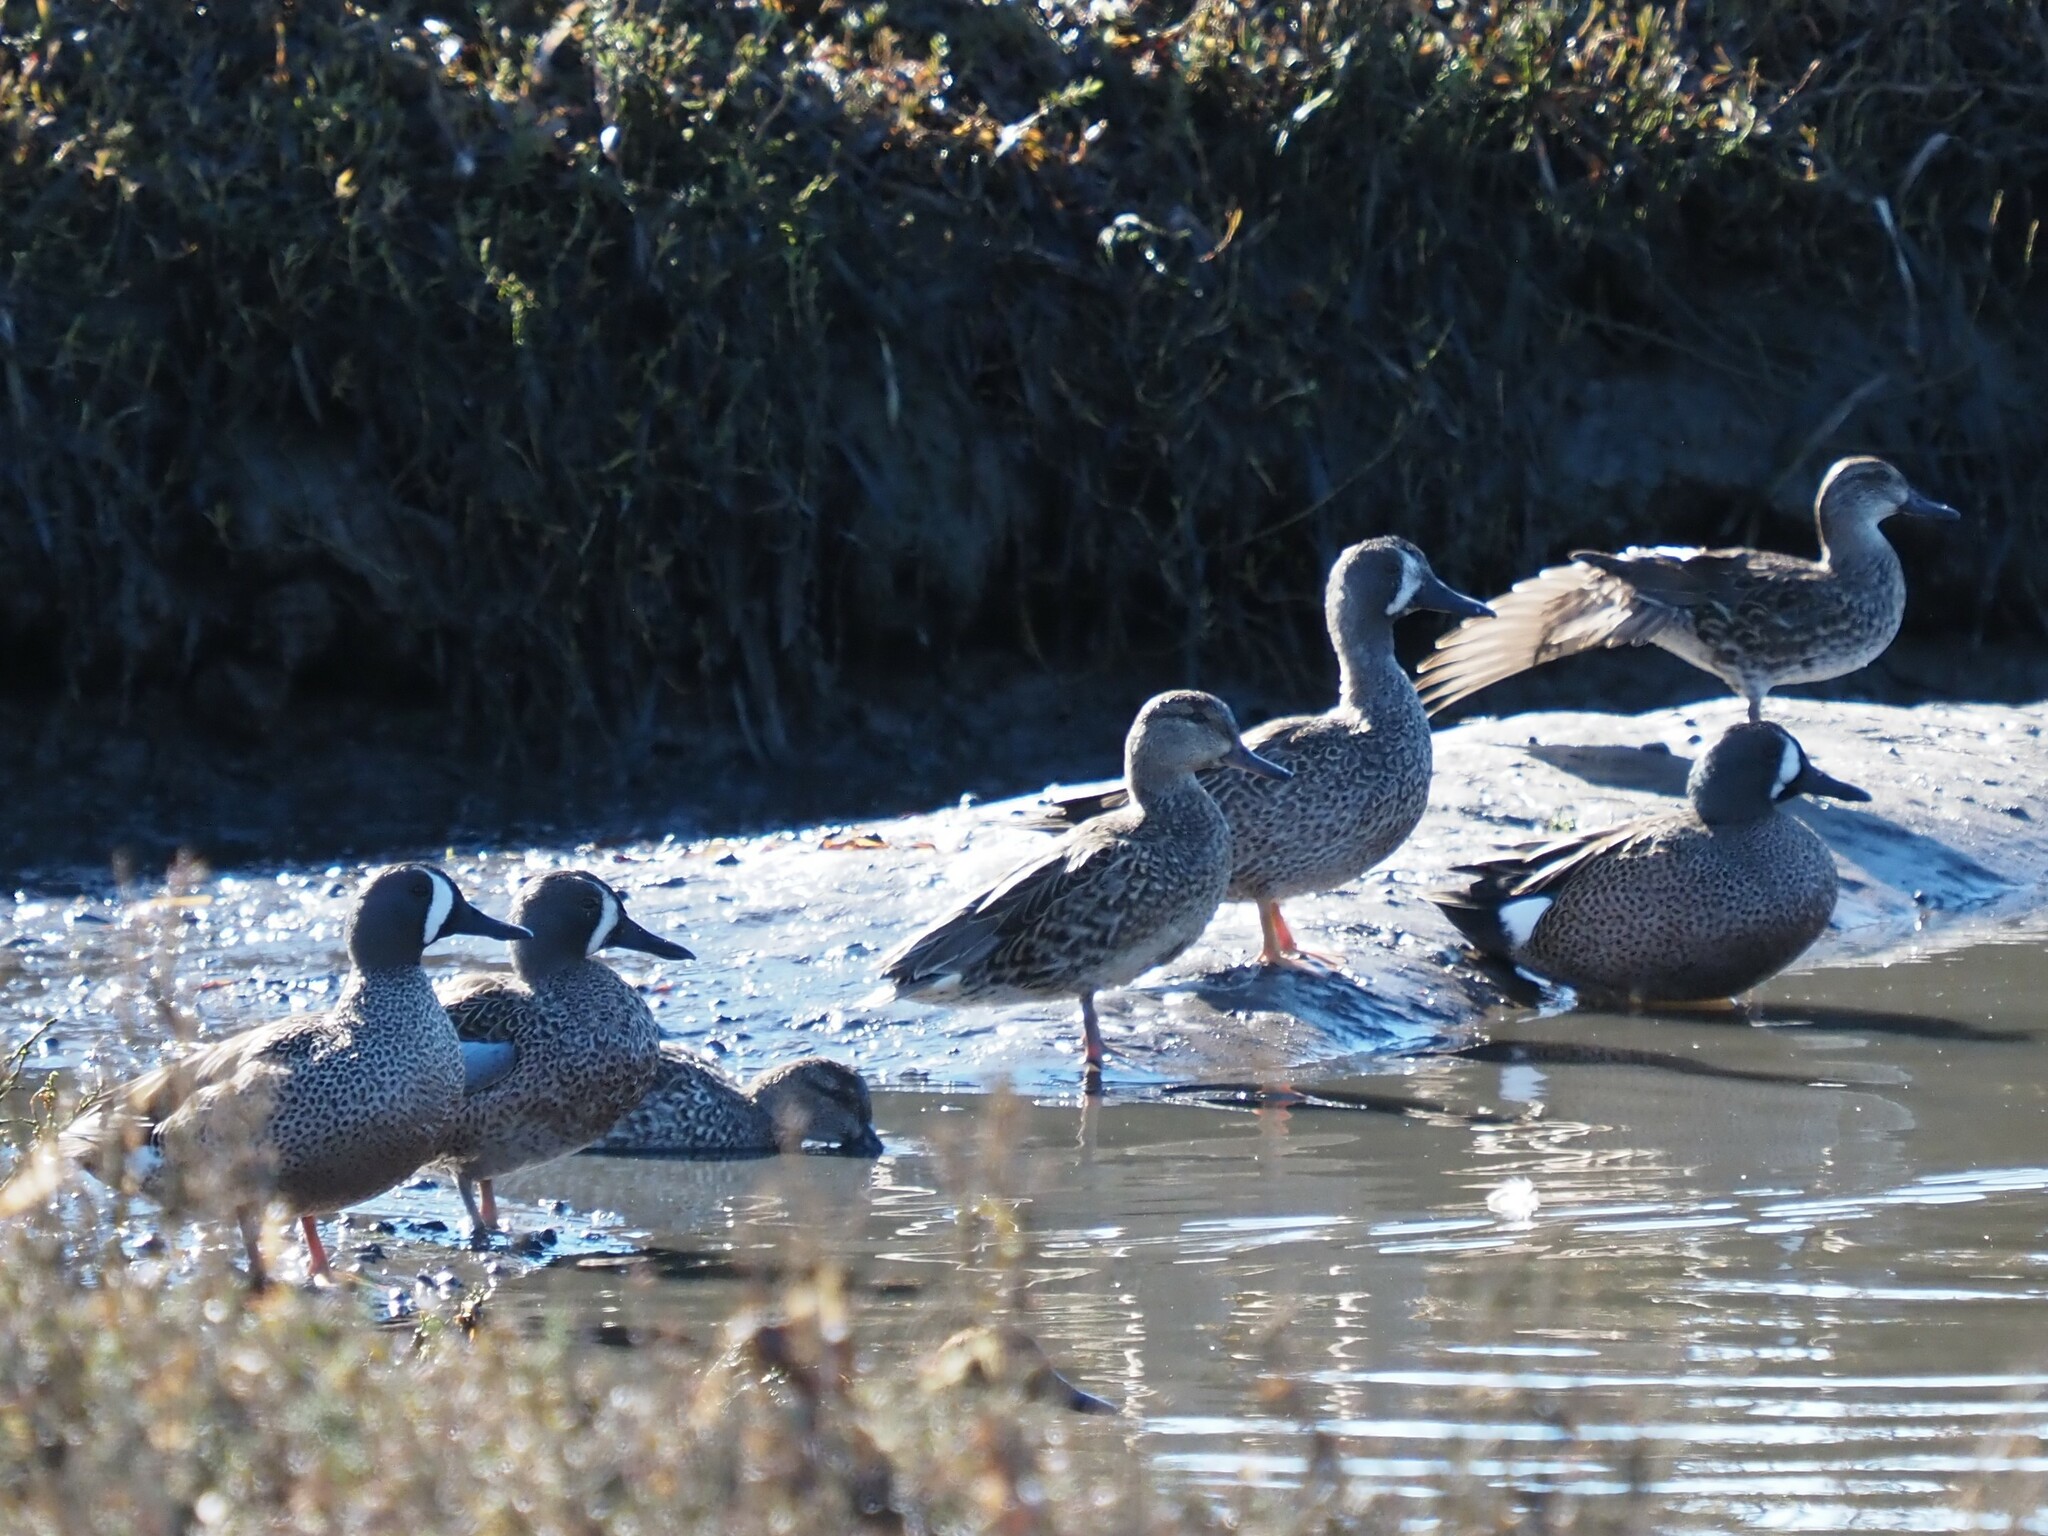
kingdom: Animalia
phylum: Chordata
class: Aves
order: Anseriformes
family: Anatidae
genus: Spatula
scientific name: Spatula discors
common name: Blue-winged teal
